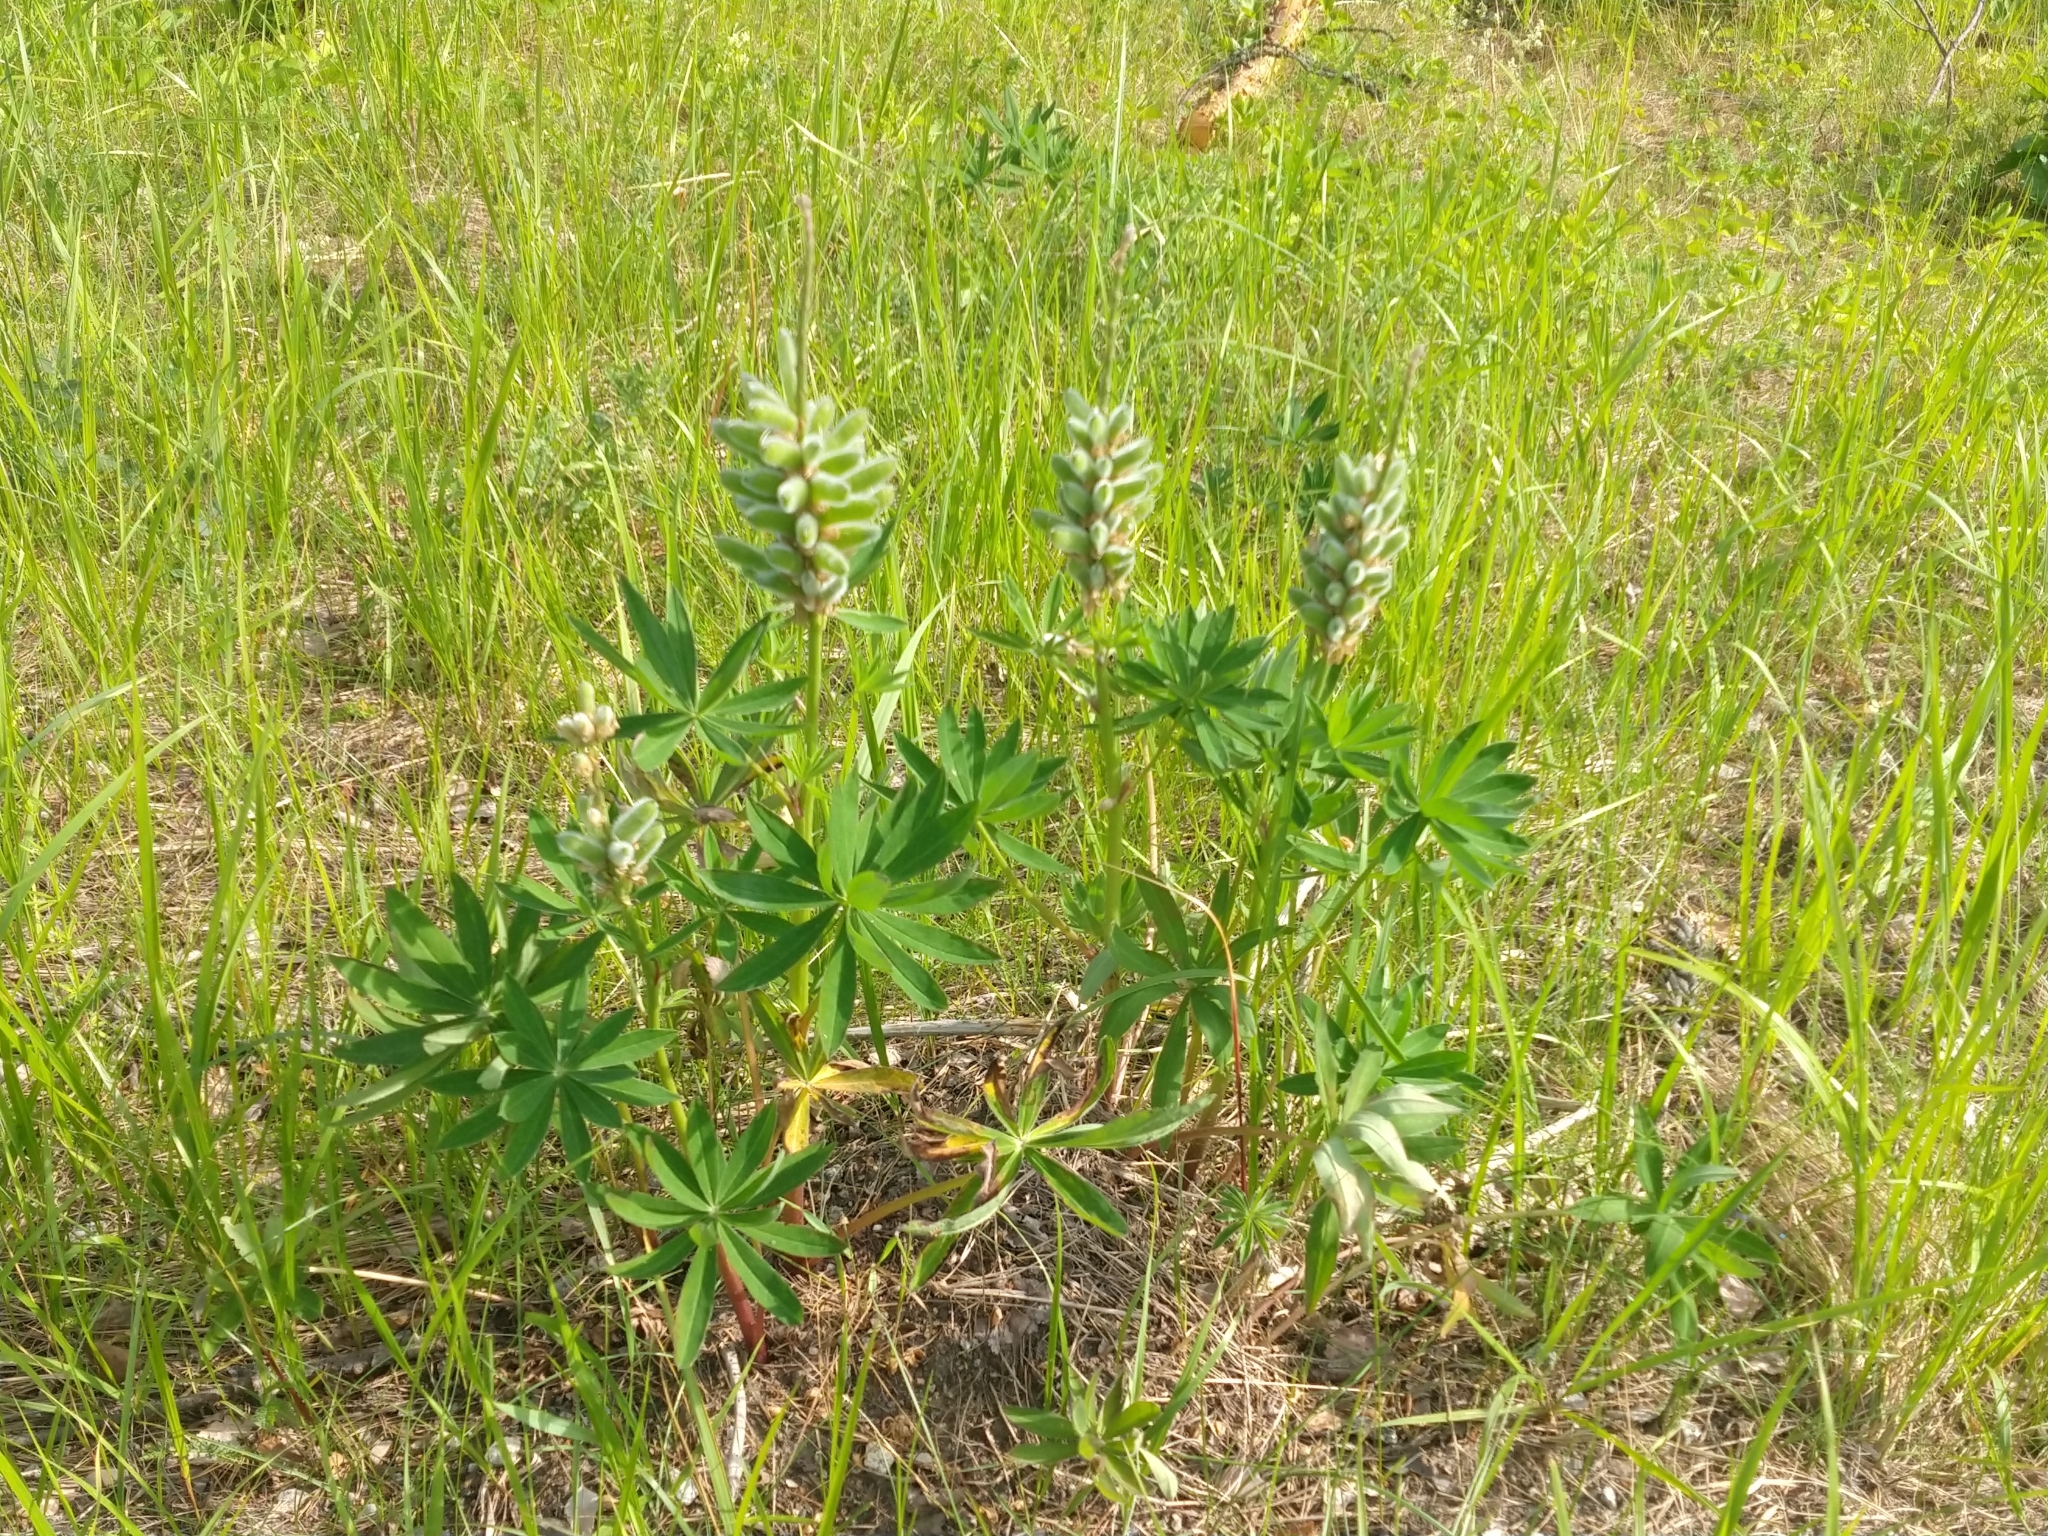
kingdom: Plantae
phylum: Tracheophyta
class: Magnoliopsida
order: Fabales
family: Fabaceae
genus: Lupinus
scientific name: Lupinus polyphyllus
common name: Garden lupin
